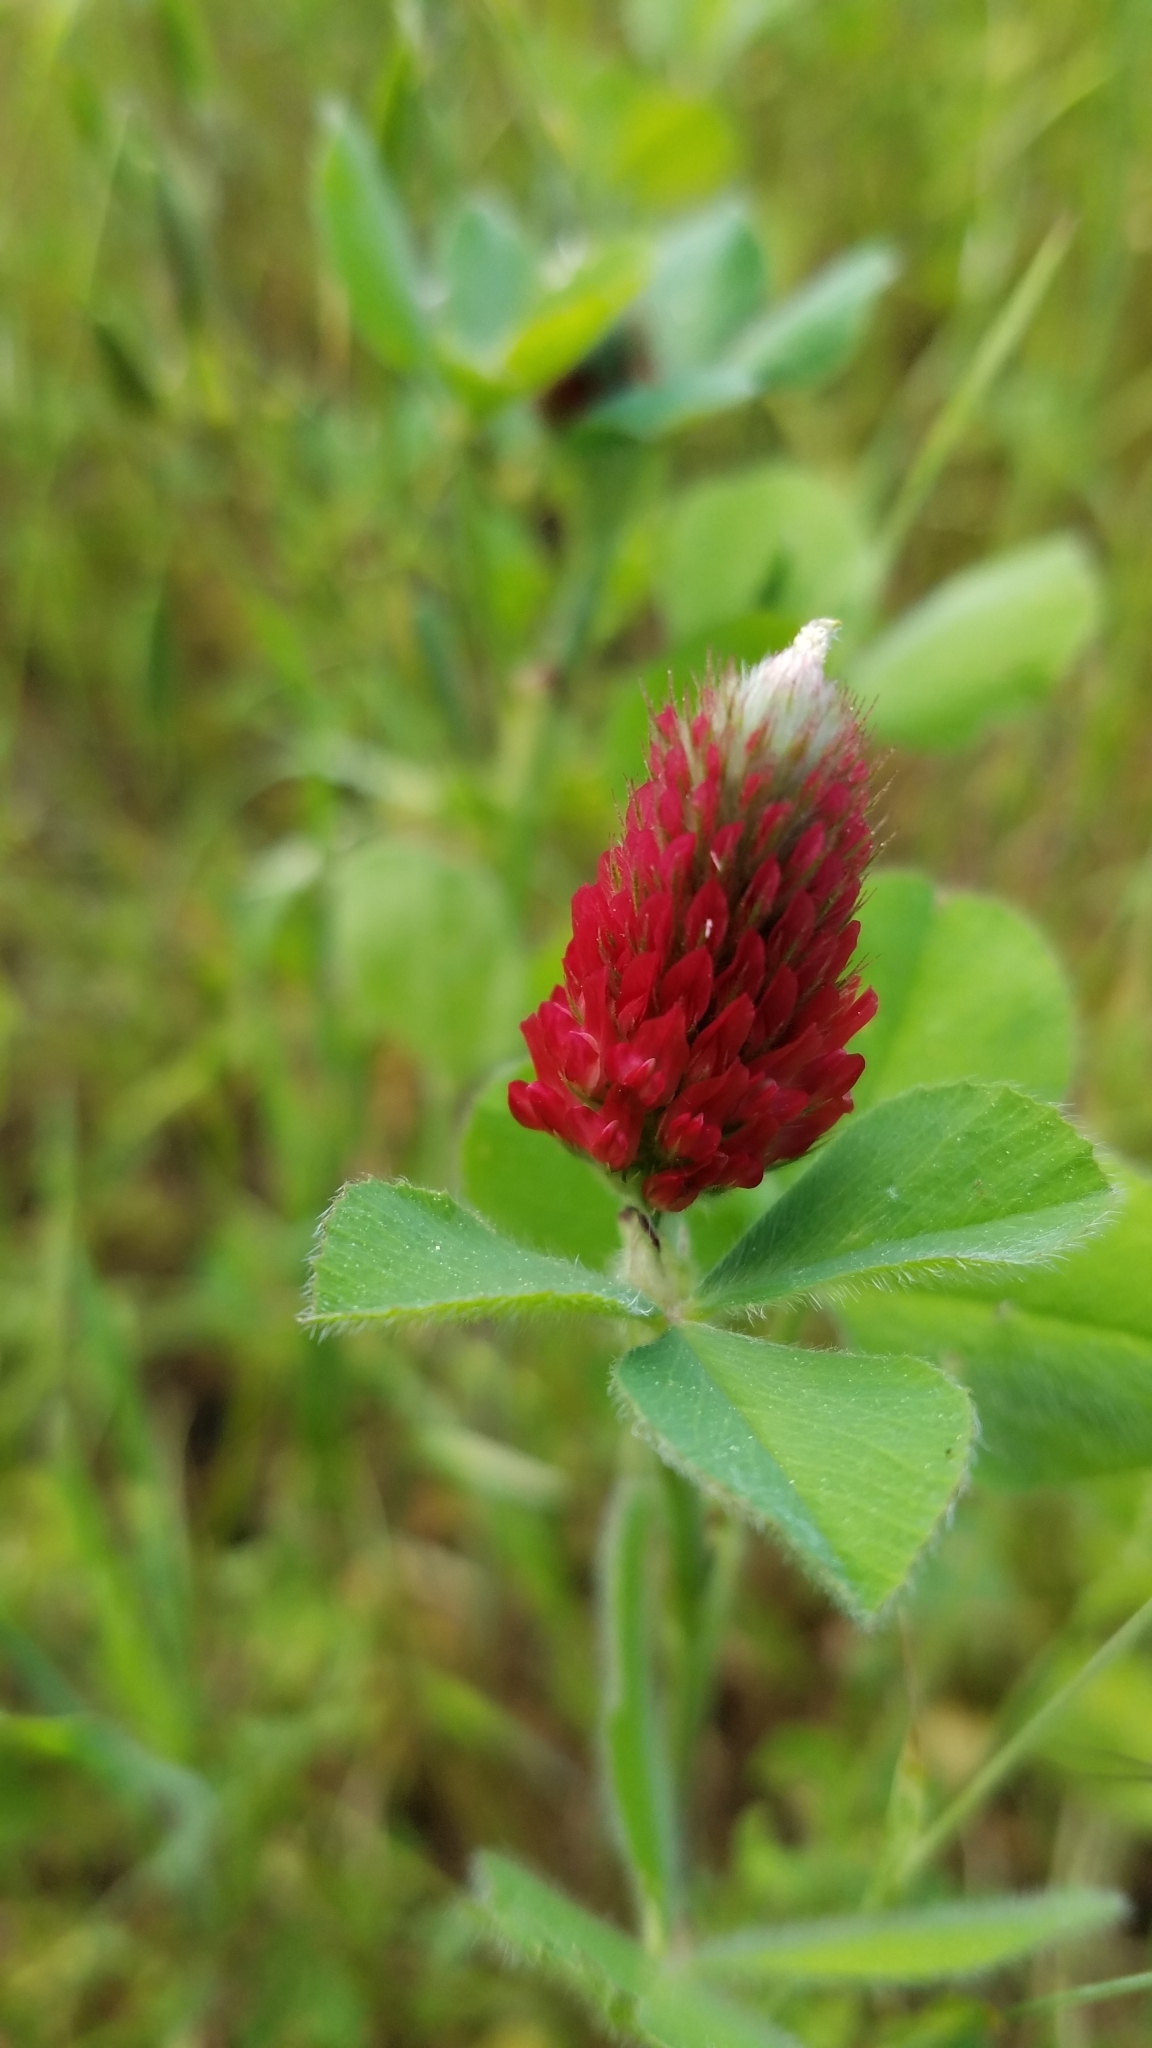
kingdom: Plantae
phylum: Tracheophyta
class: Magnoliopsida
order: Fabales
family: Fabaceae
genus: Trifolium
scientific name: Trifolium incarnatum
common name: Crimson clover
